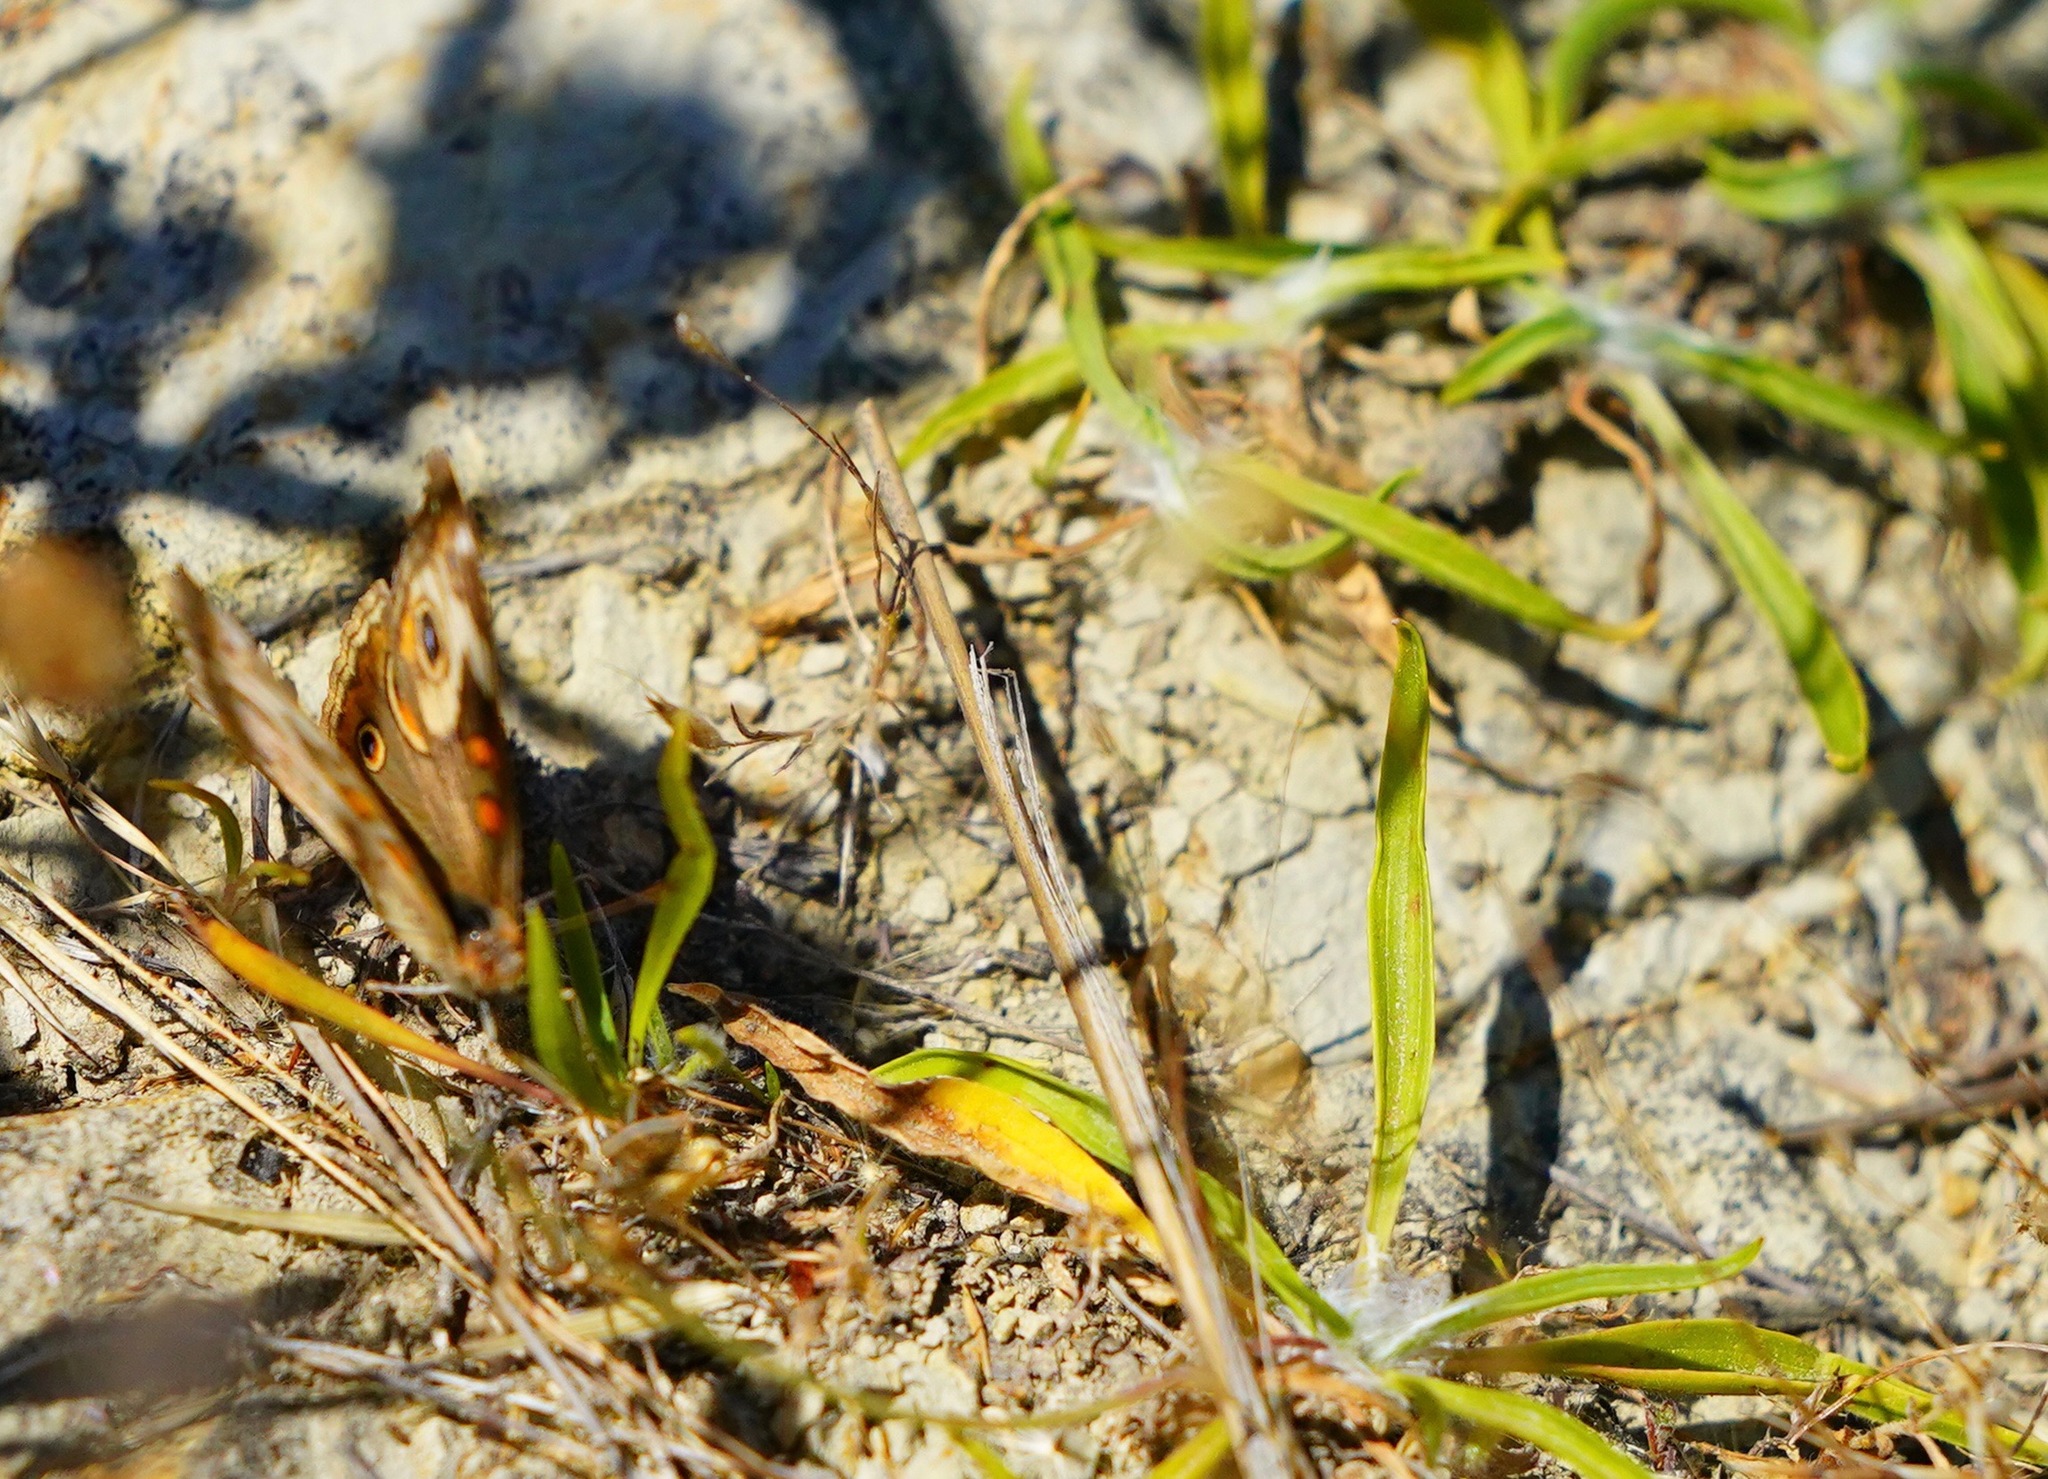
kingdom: Animalia
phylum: Arthropoda
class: Insecta
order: Lepidoptera
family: Nymphalidae
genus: Junonia
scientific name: Junonia grisea
